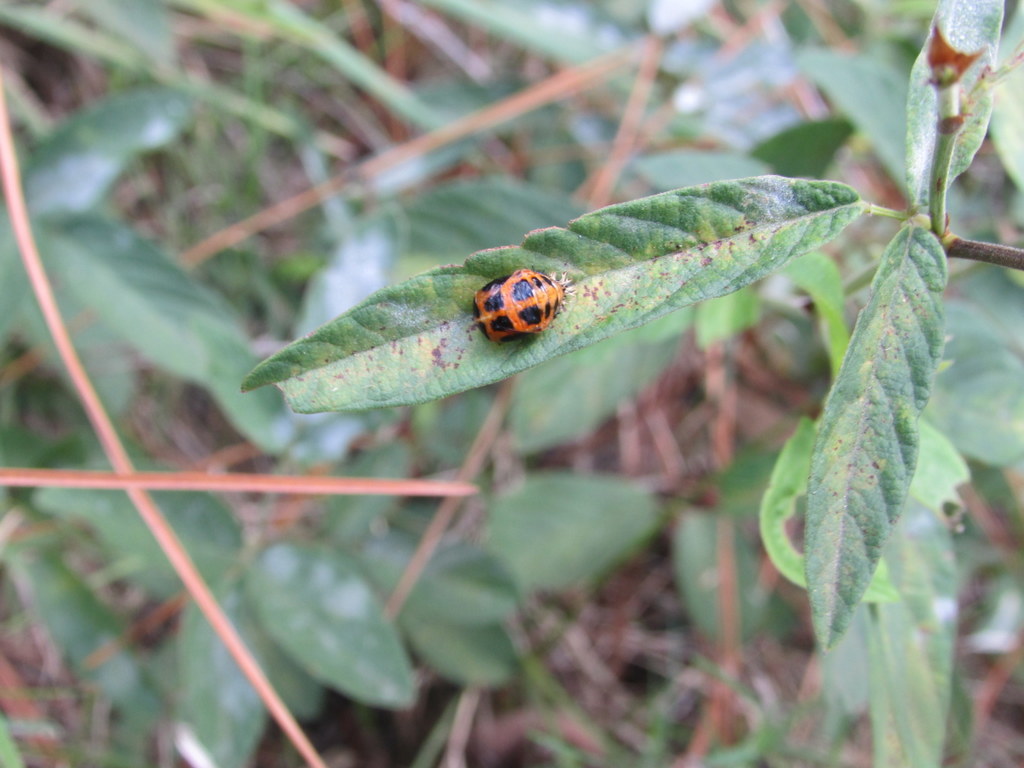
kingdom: Animalia
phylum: Arthropoda
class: Insecta
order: Coleoptera
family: Coccinellidae
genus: Harmonia
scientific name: Harmonia axyridis
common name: Harlequin ladybird
